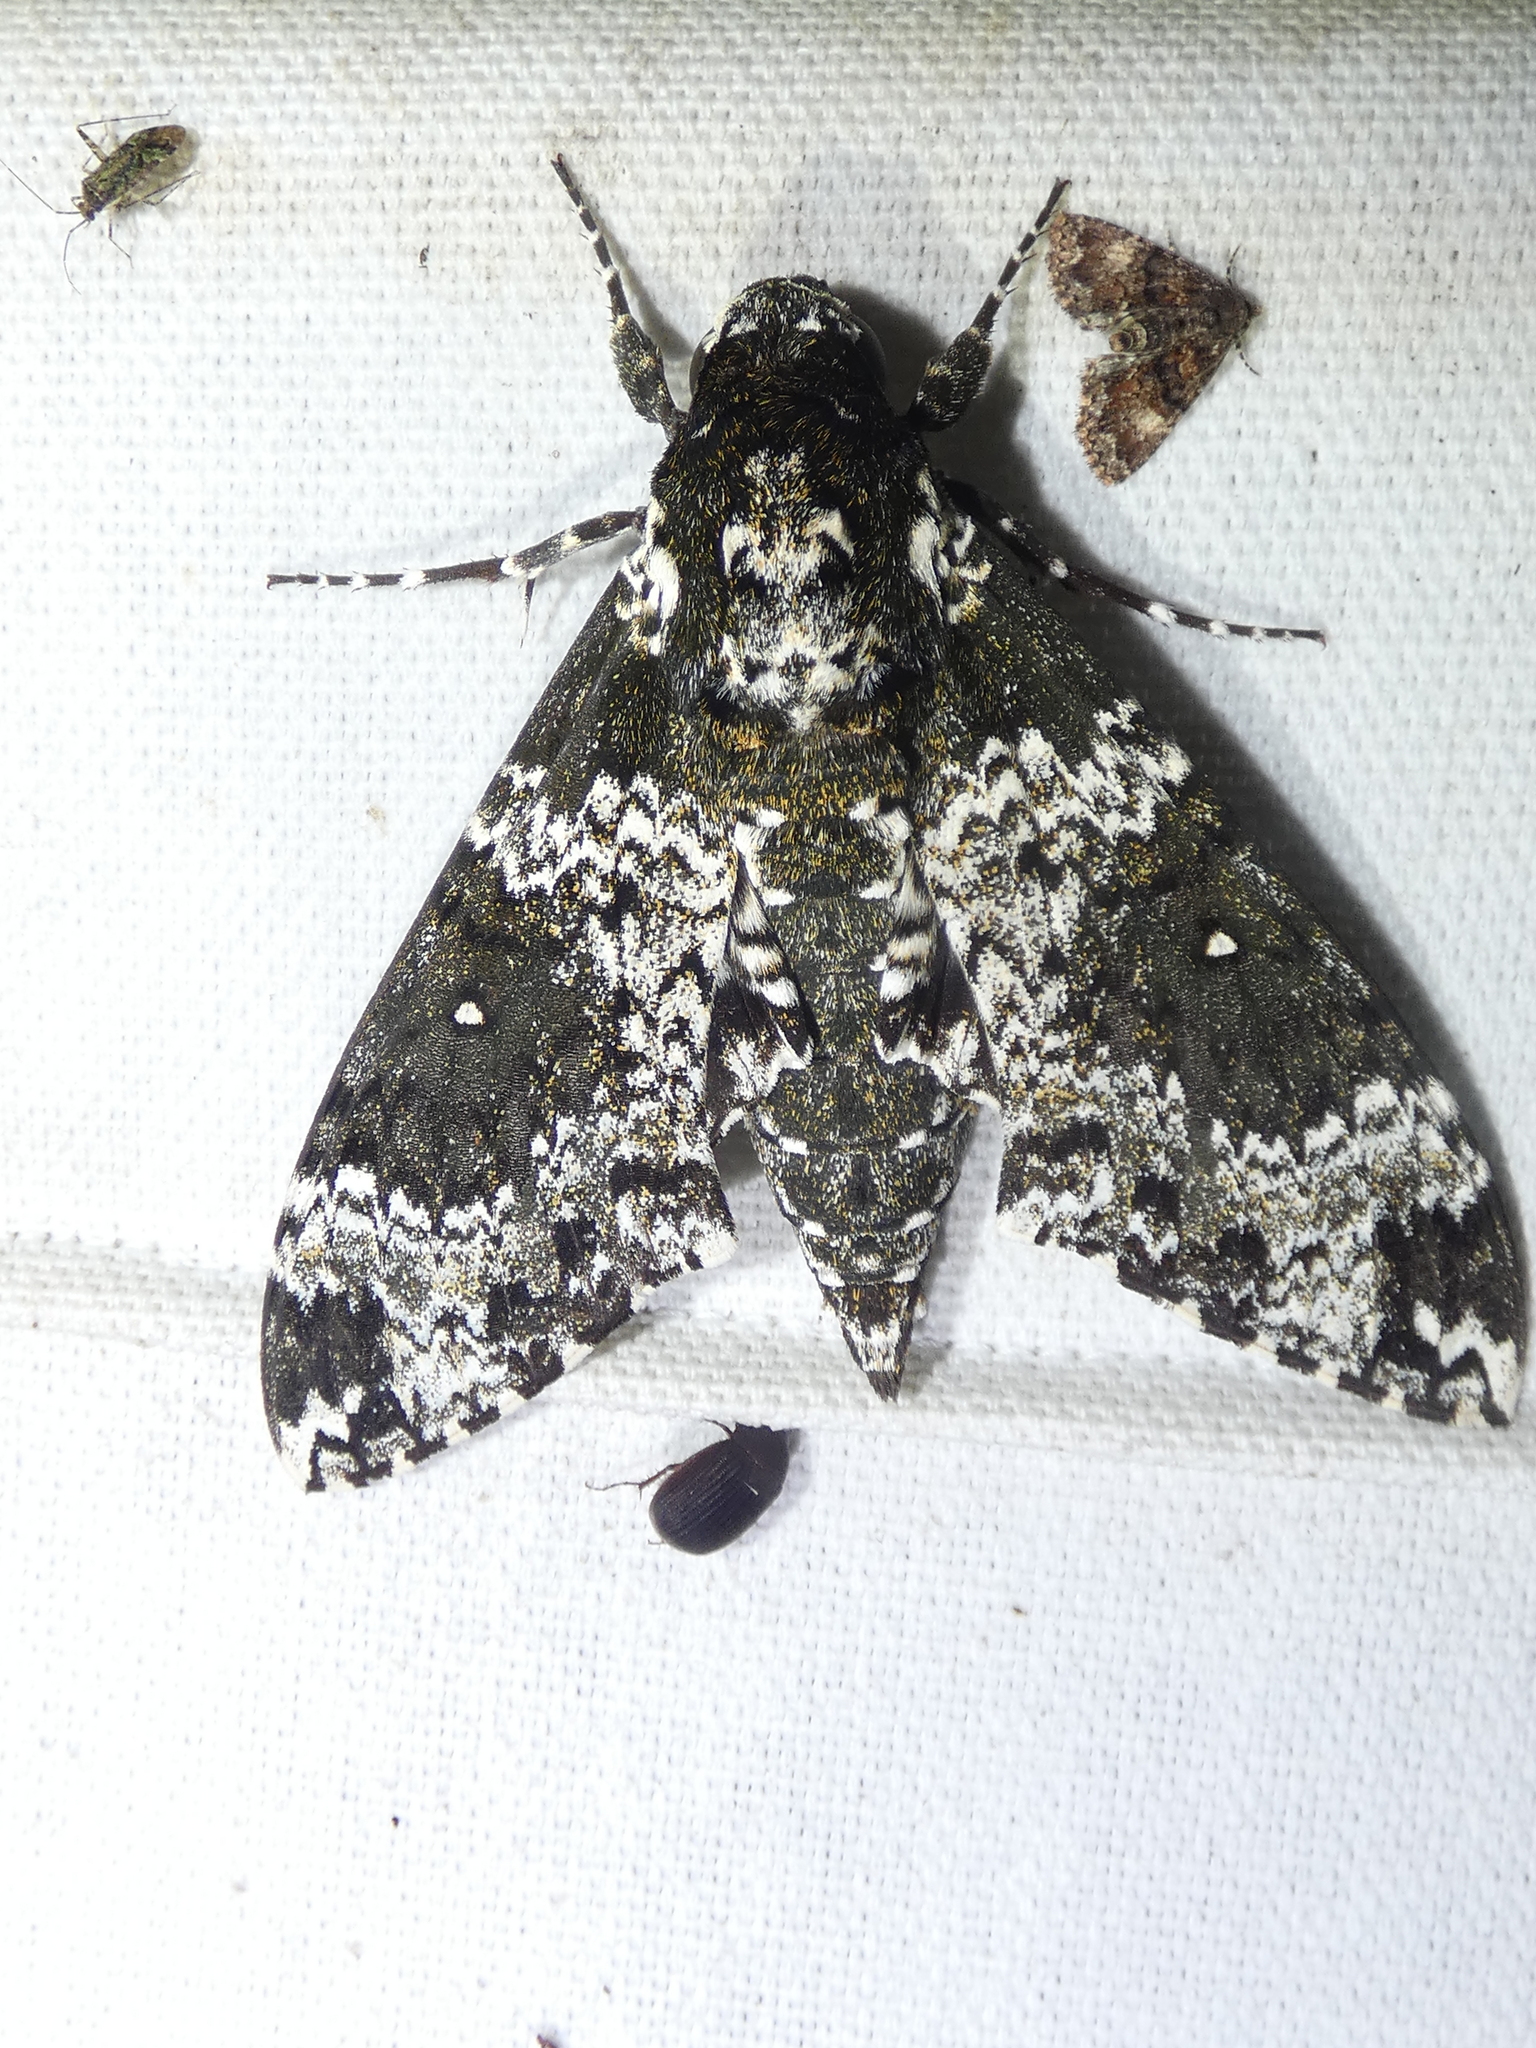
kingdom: Animalia
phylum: Arthropoda
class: Insecta
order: Lepidoptera
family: Sphingidae
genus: Manduca
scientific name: Manduca rustica
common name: Rustic sphinx
